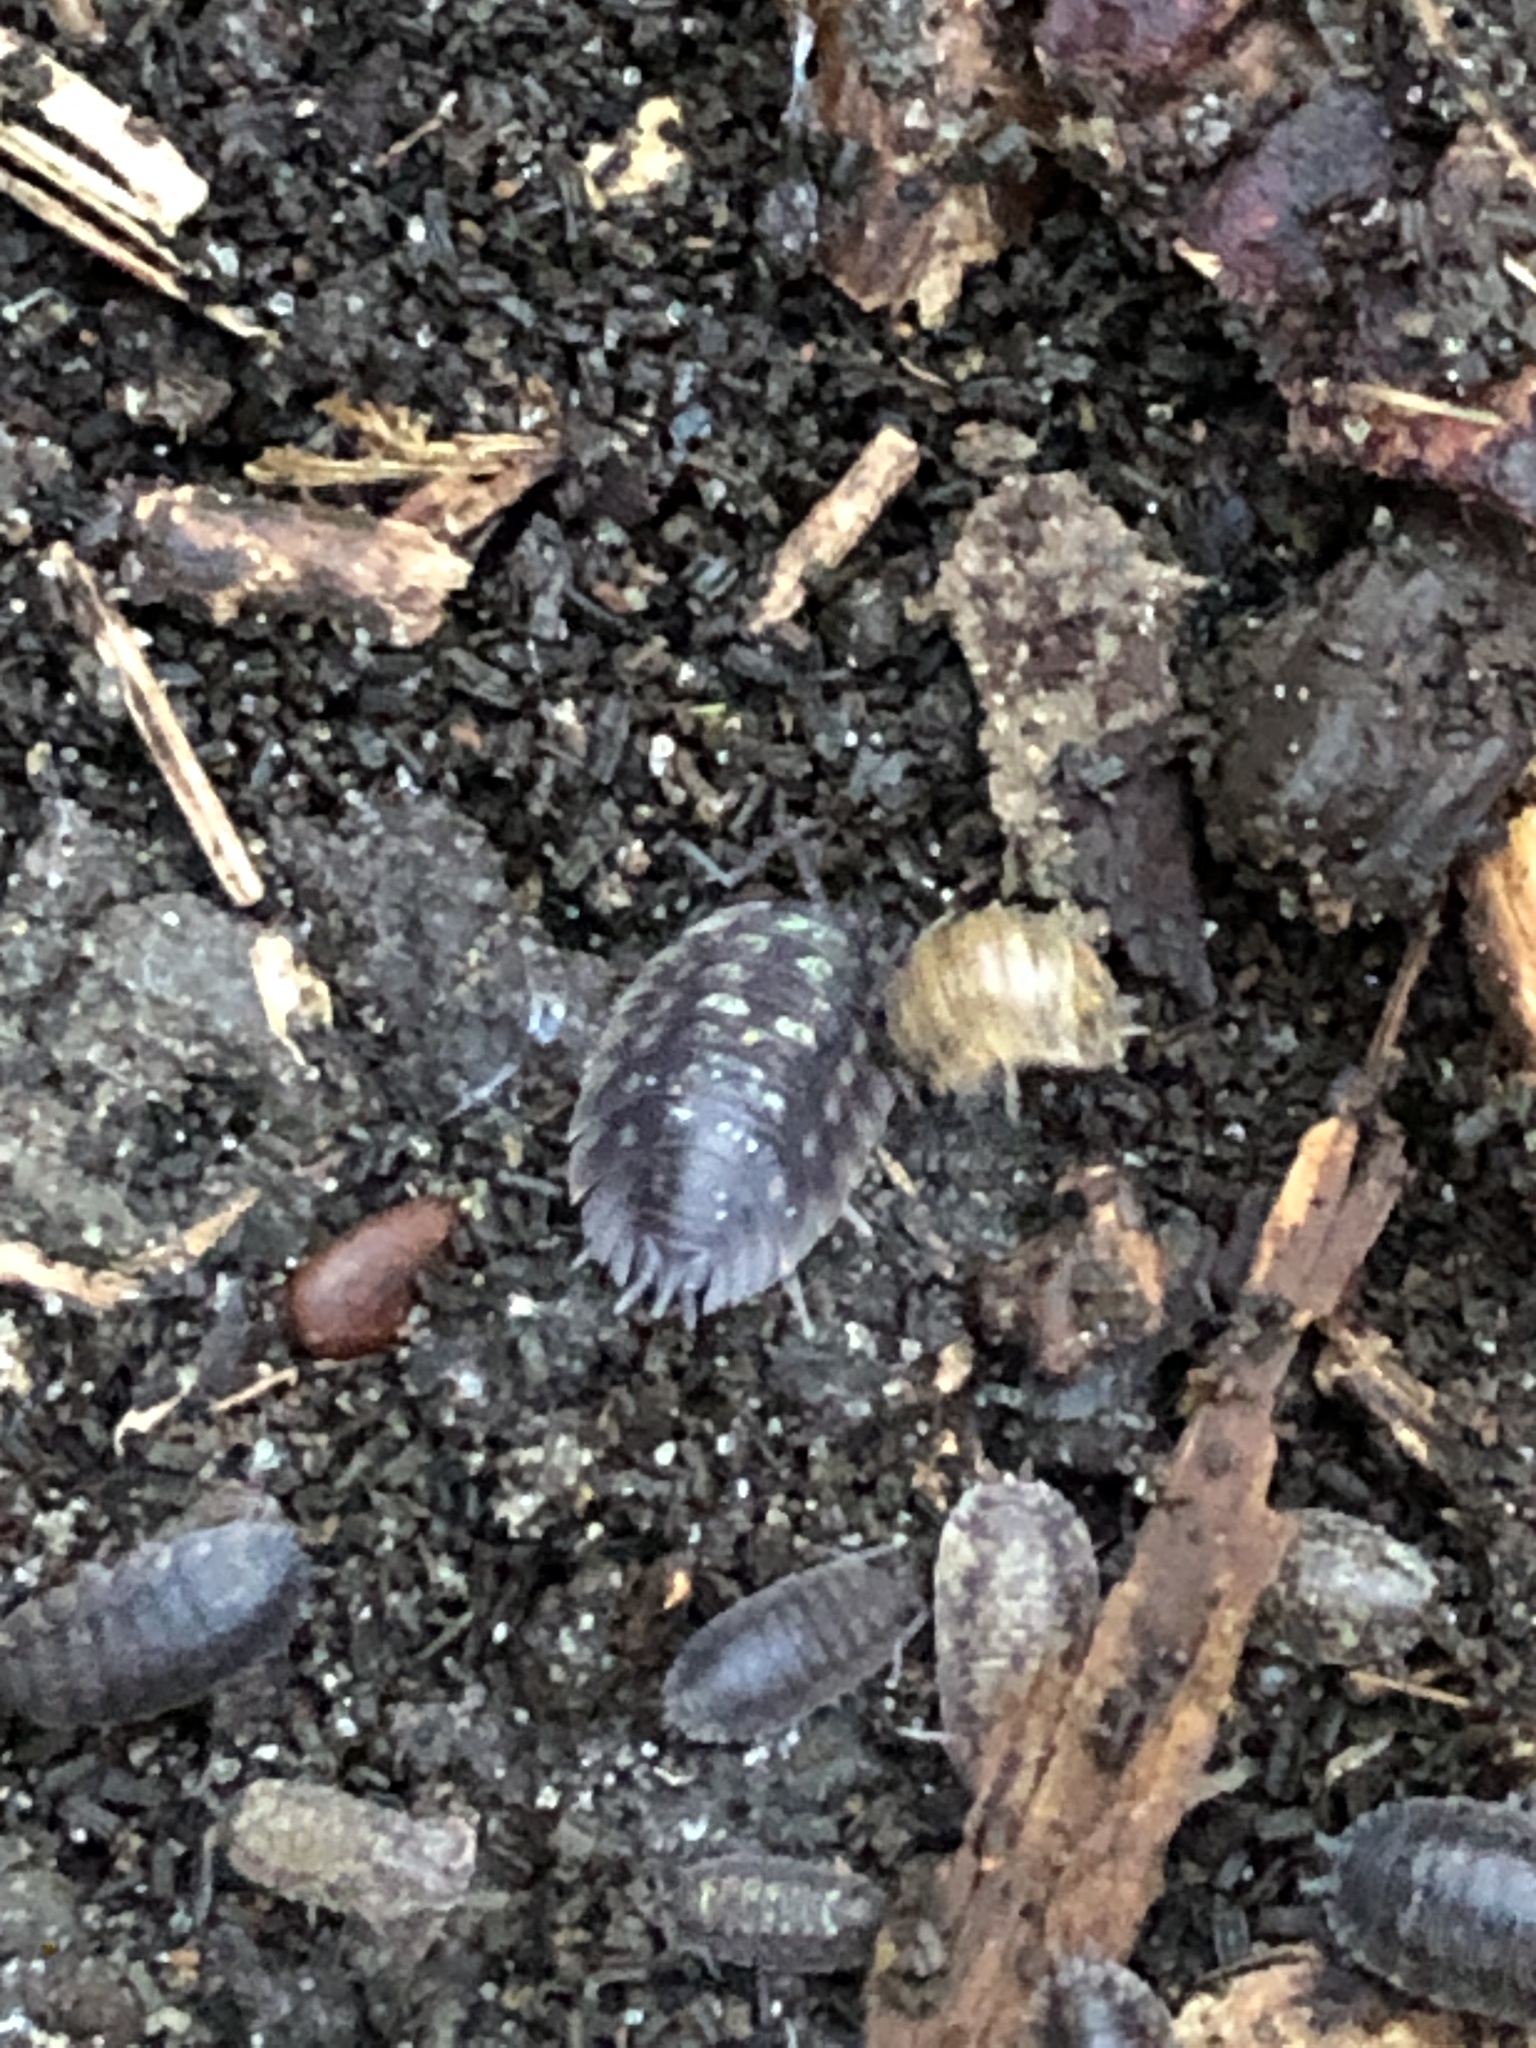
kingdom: Animalia
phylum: Arthropoda
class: Malacostraca
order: Isopoda
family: Oniscidae
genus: Oniscus
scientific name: Oniscus asellus
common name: Common shiny woodlouse
